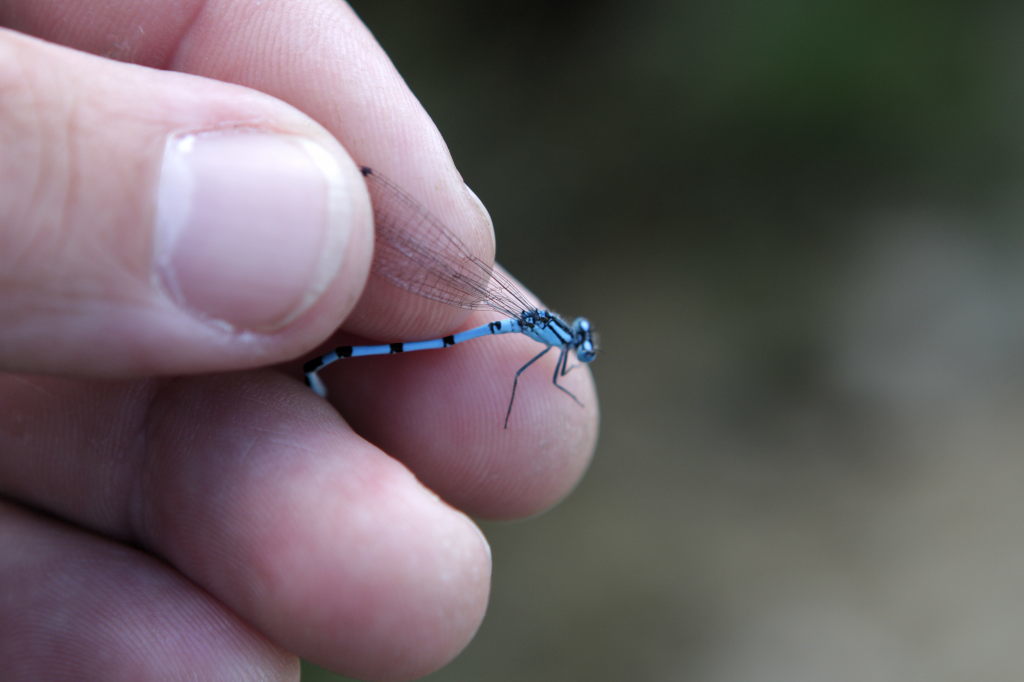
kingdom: Animalia
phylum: Arthropoda
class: Insecta
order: Odonata
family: Coenagrionidae
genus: Enallagma
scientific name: Enallagma cyathigerum
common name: Common blue damselfly
